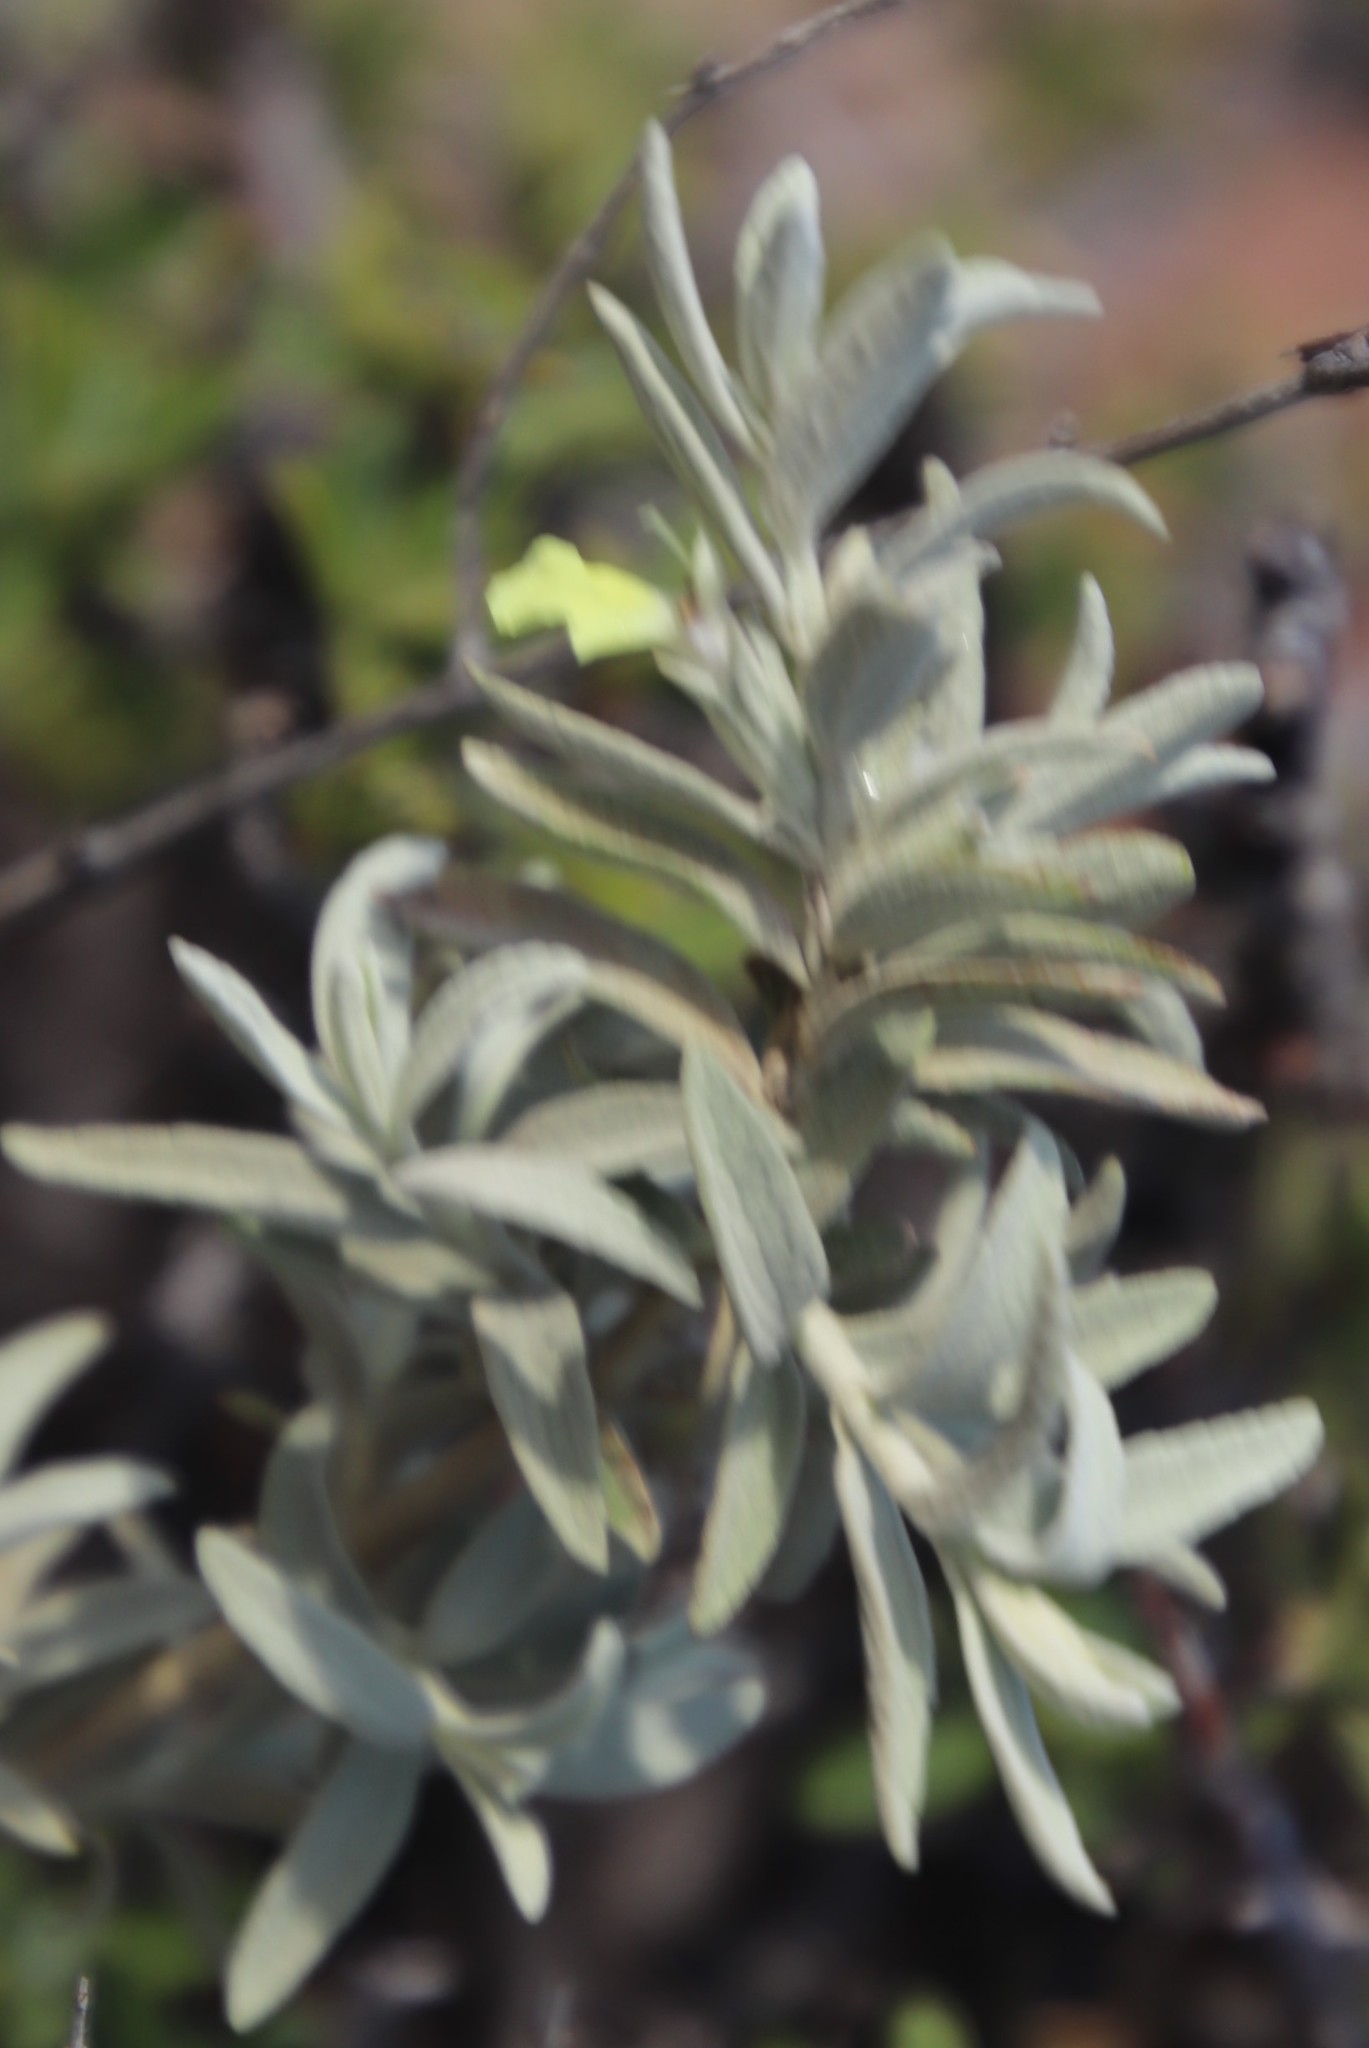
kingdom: Plantae
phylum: Tracheophyta
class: Magnoliopsida
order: Lamiales
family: Lamiaceae
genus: Stachys
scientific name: Stachys flavescens
